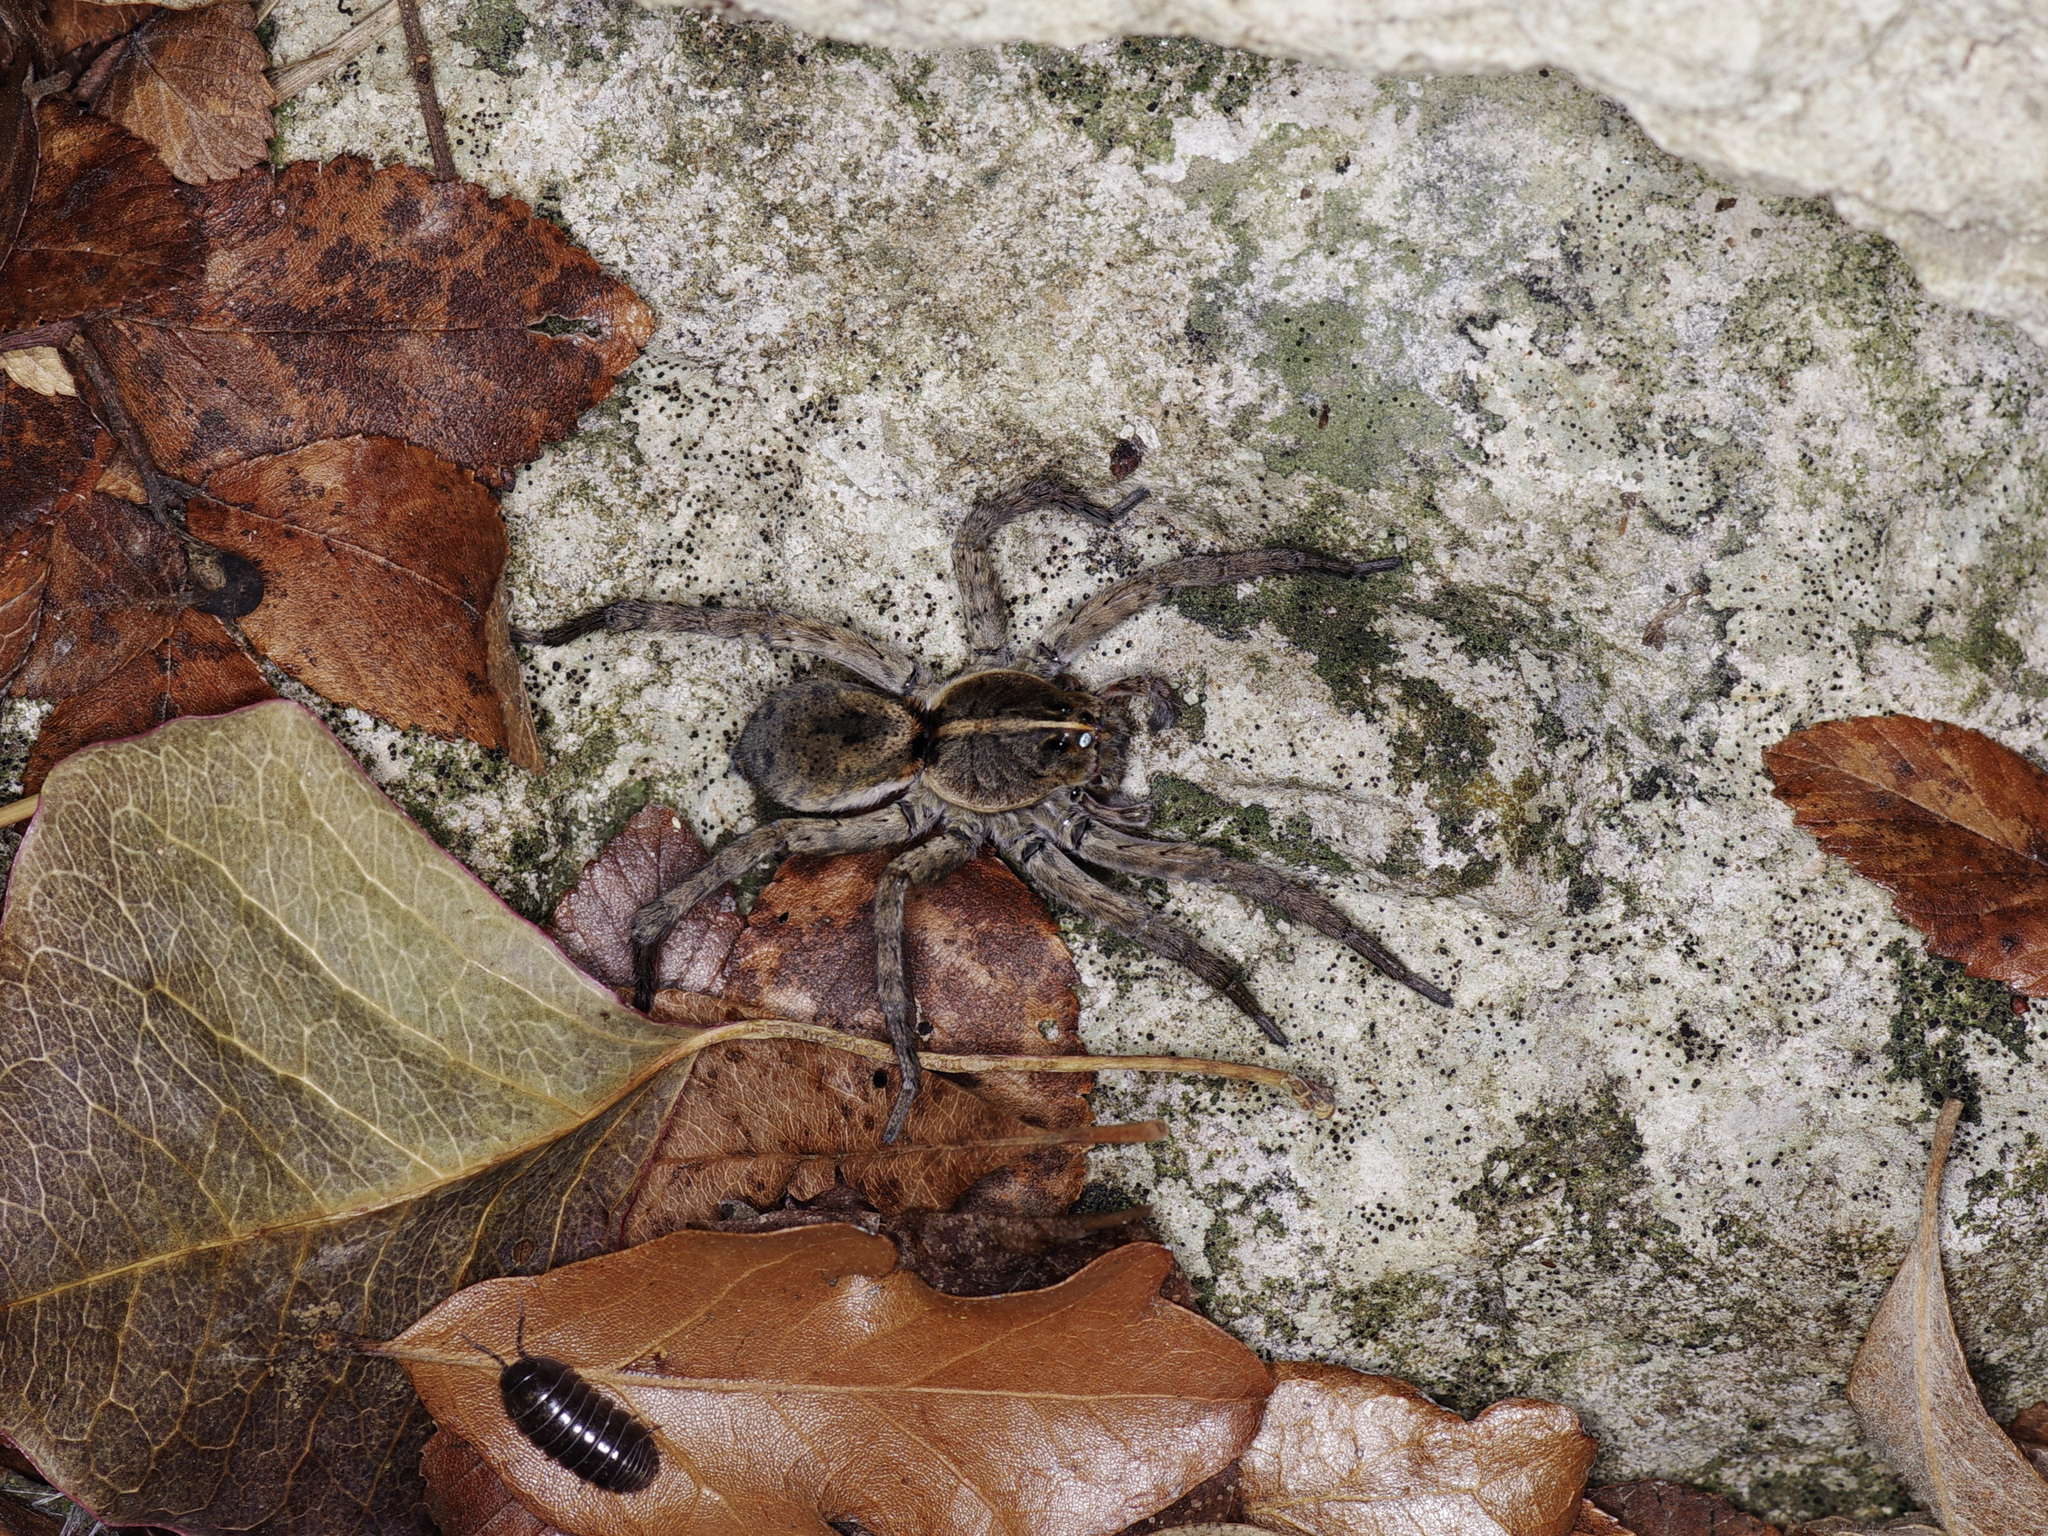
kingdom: Animalia
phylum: Arthropoda
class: Arachnida
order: Araneae
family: Lycosidae
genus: Tigrosa
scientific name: Tigrosa georgicola
